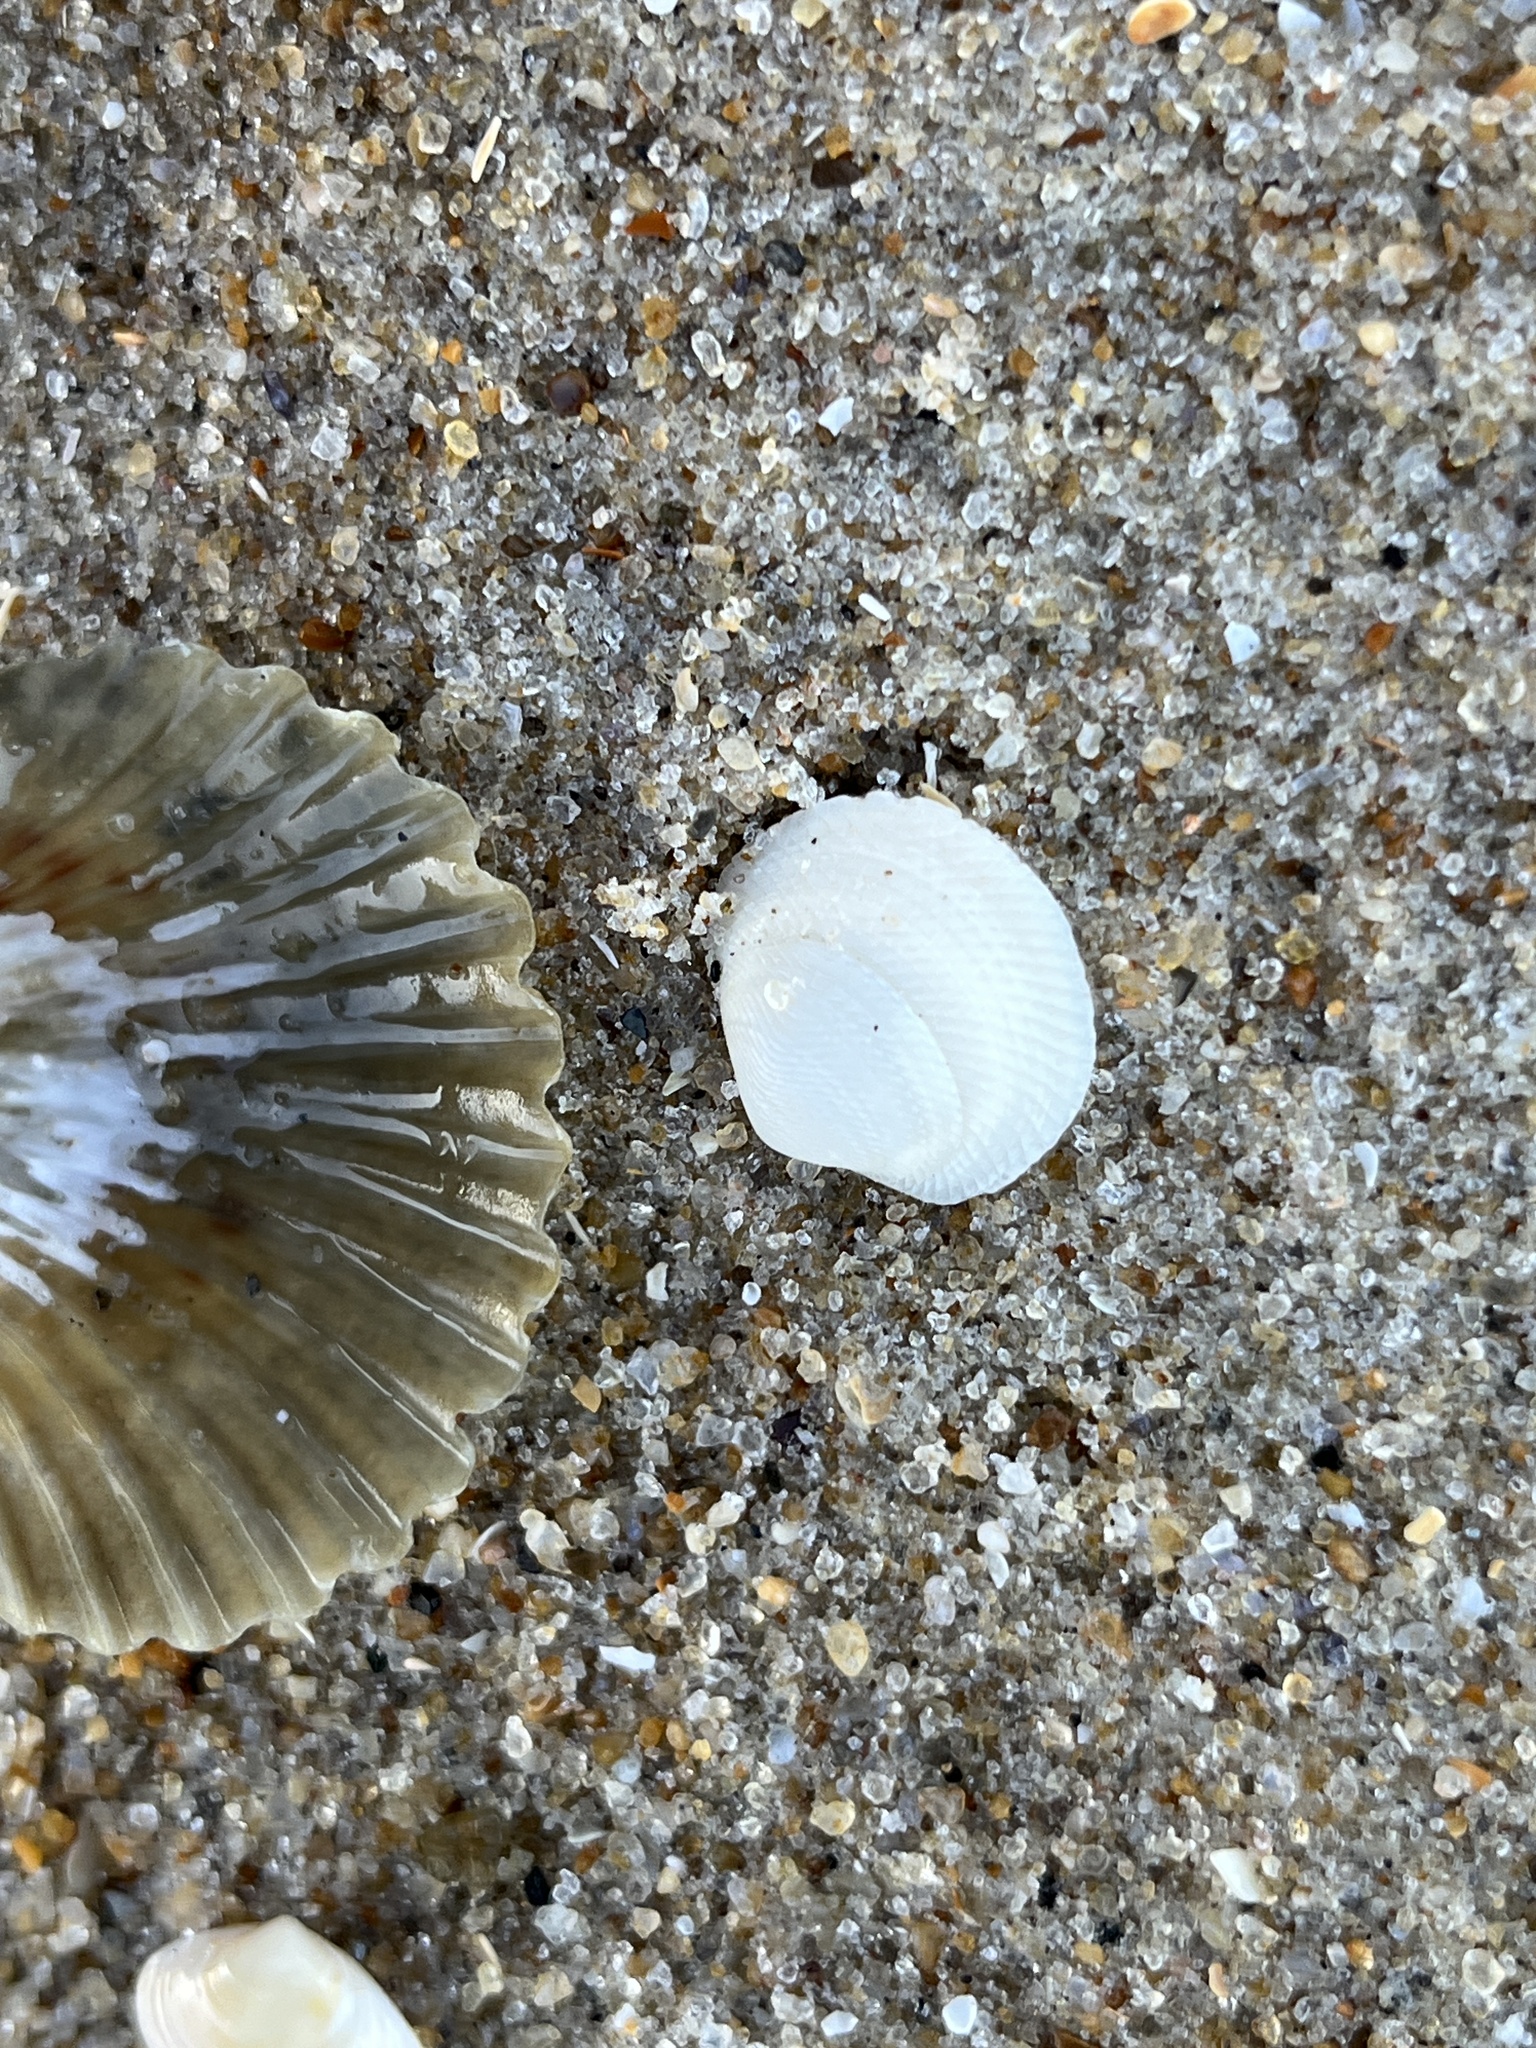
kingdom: Animalia
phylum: Mollusca
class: Bivalvia
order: Lucinida
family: Lucinidae
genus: Divalinga
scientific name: Divalinga quadrisulcata
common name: Cross-hatched lucine
